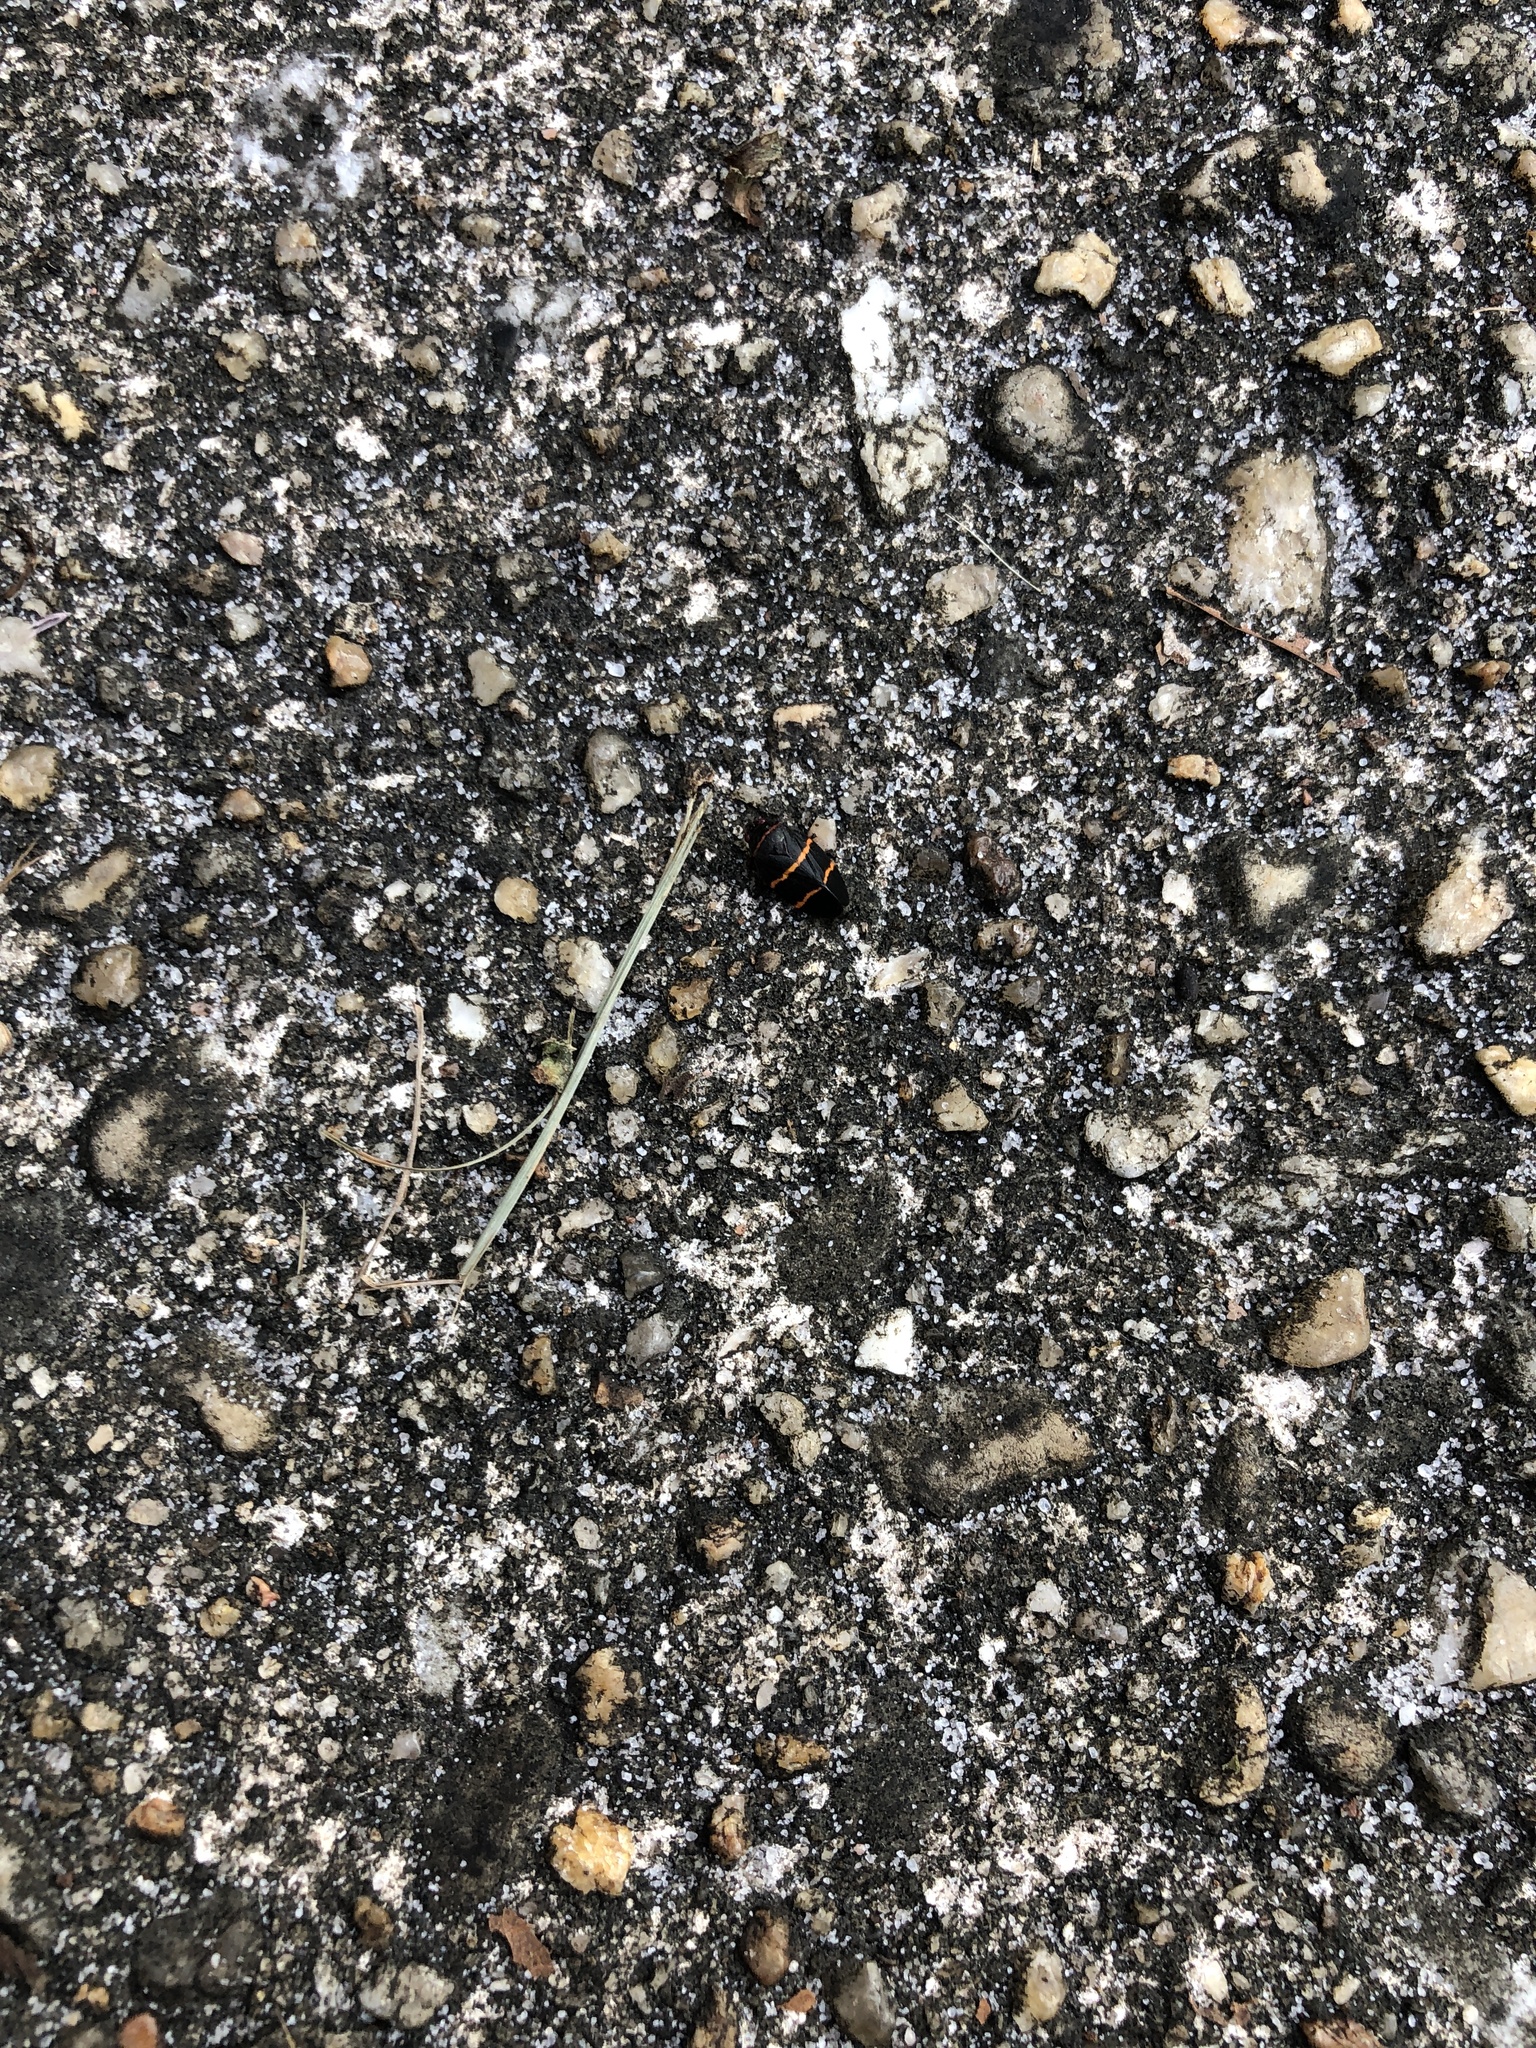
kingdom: Animalia
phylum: Arthropoda
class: Insecta
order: Hemiptera
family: Cercopidae
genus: Prosapia
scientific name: Prosapia bicincta
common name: Twolined spittlebug
